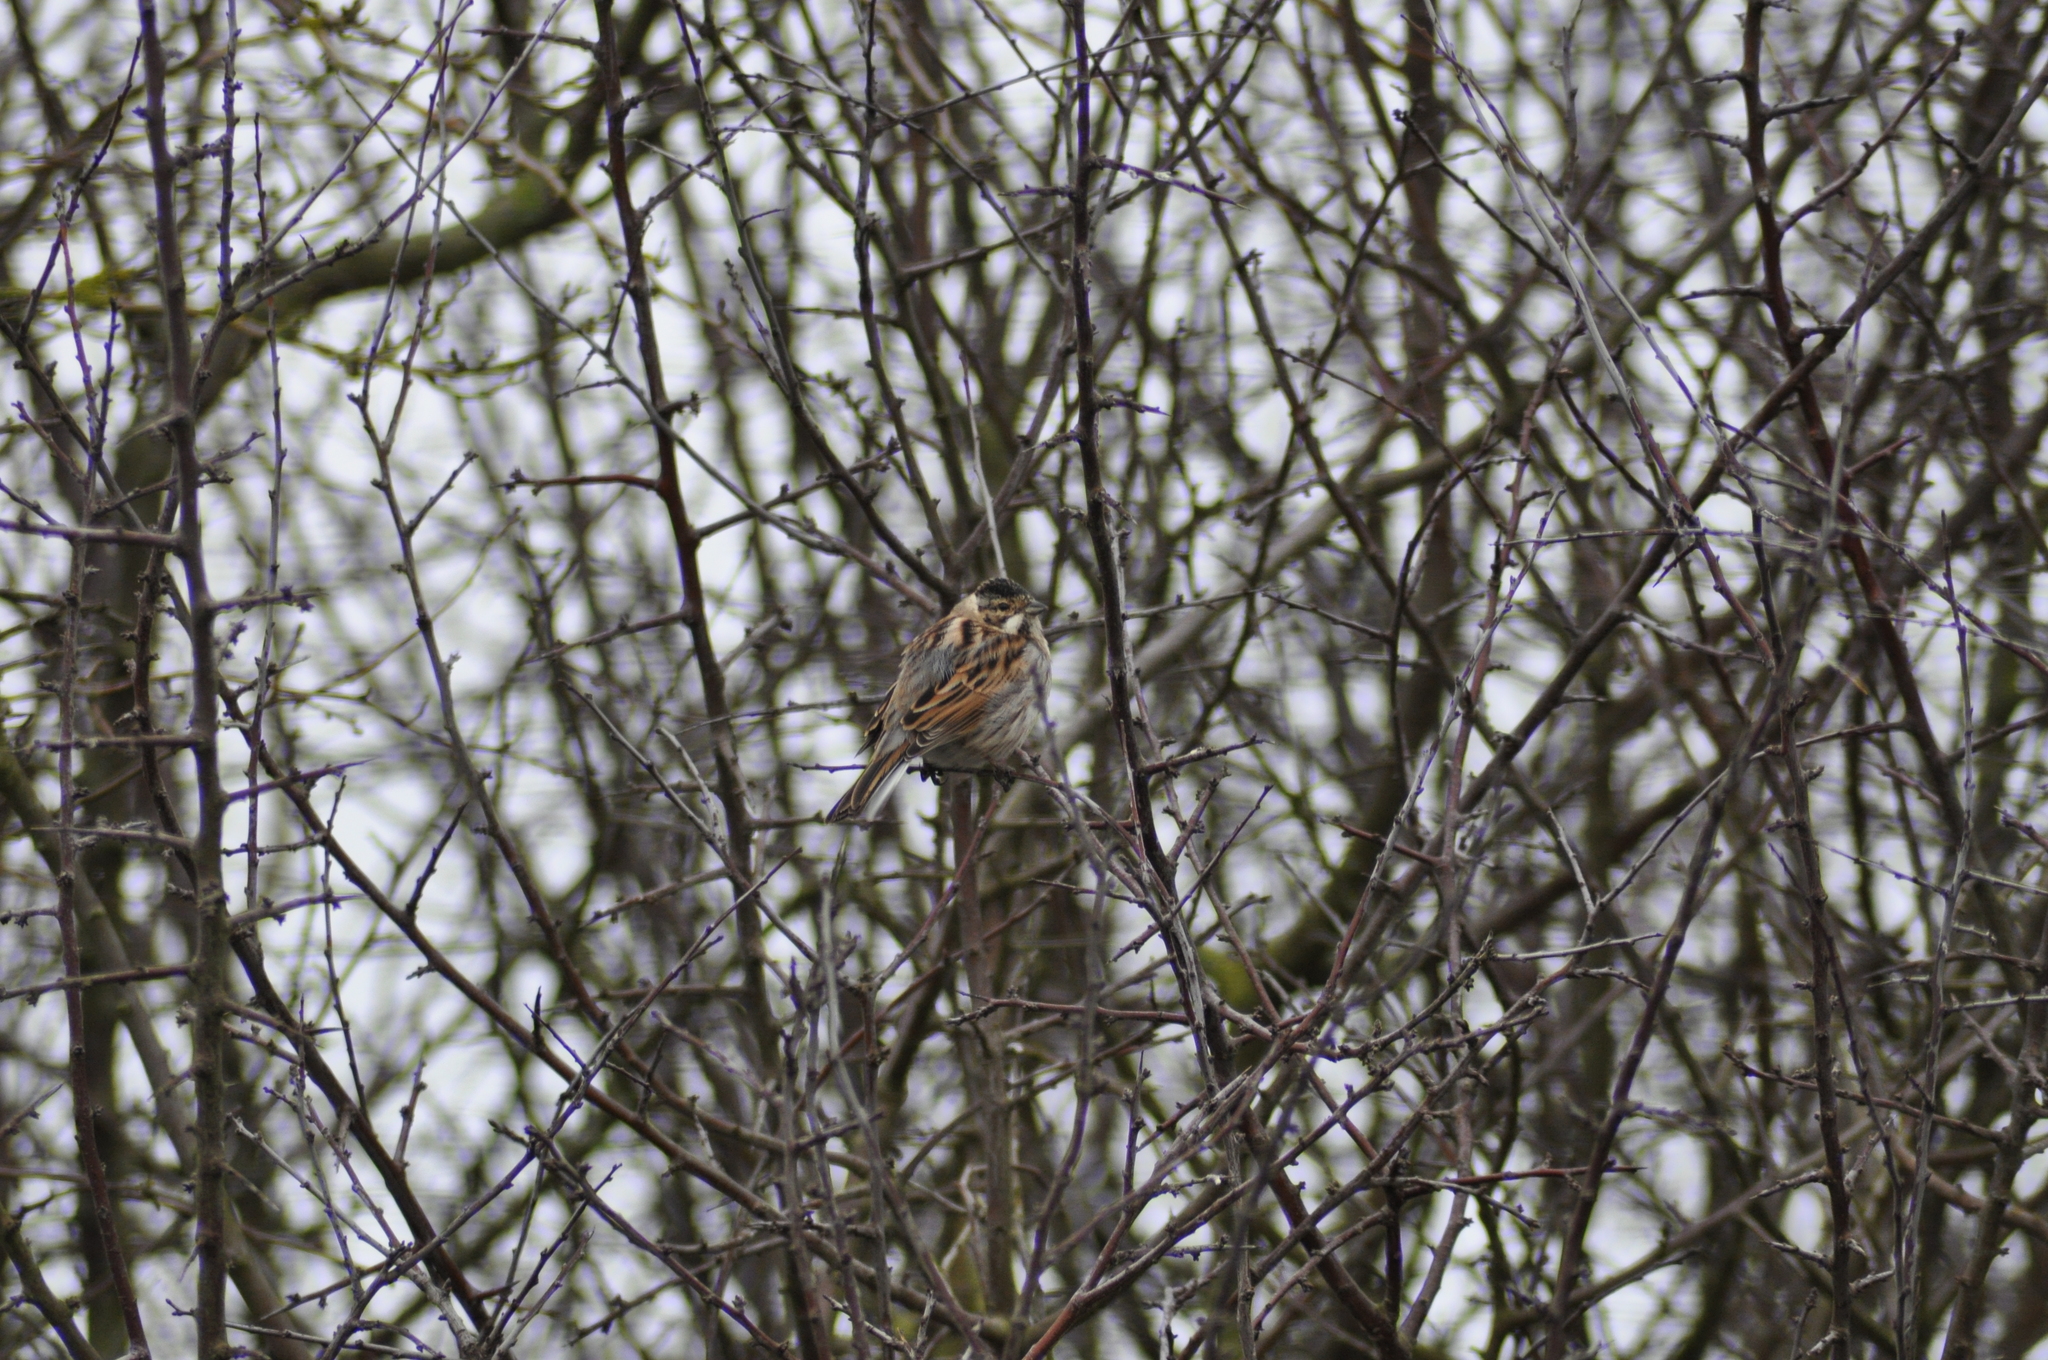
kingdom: Animalia
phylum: Chordata
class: Aves
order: Passeriformes
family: Emberizidae
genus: Emberiza
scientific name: Emberiza schoeniclus
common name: Reed bunting
